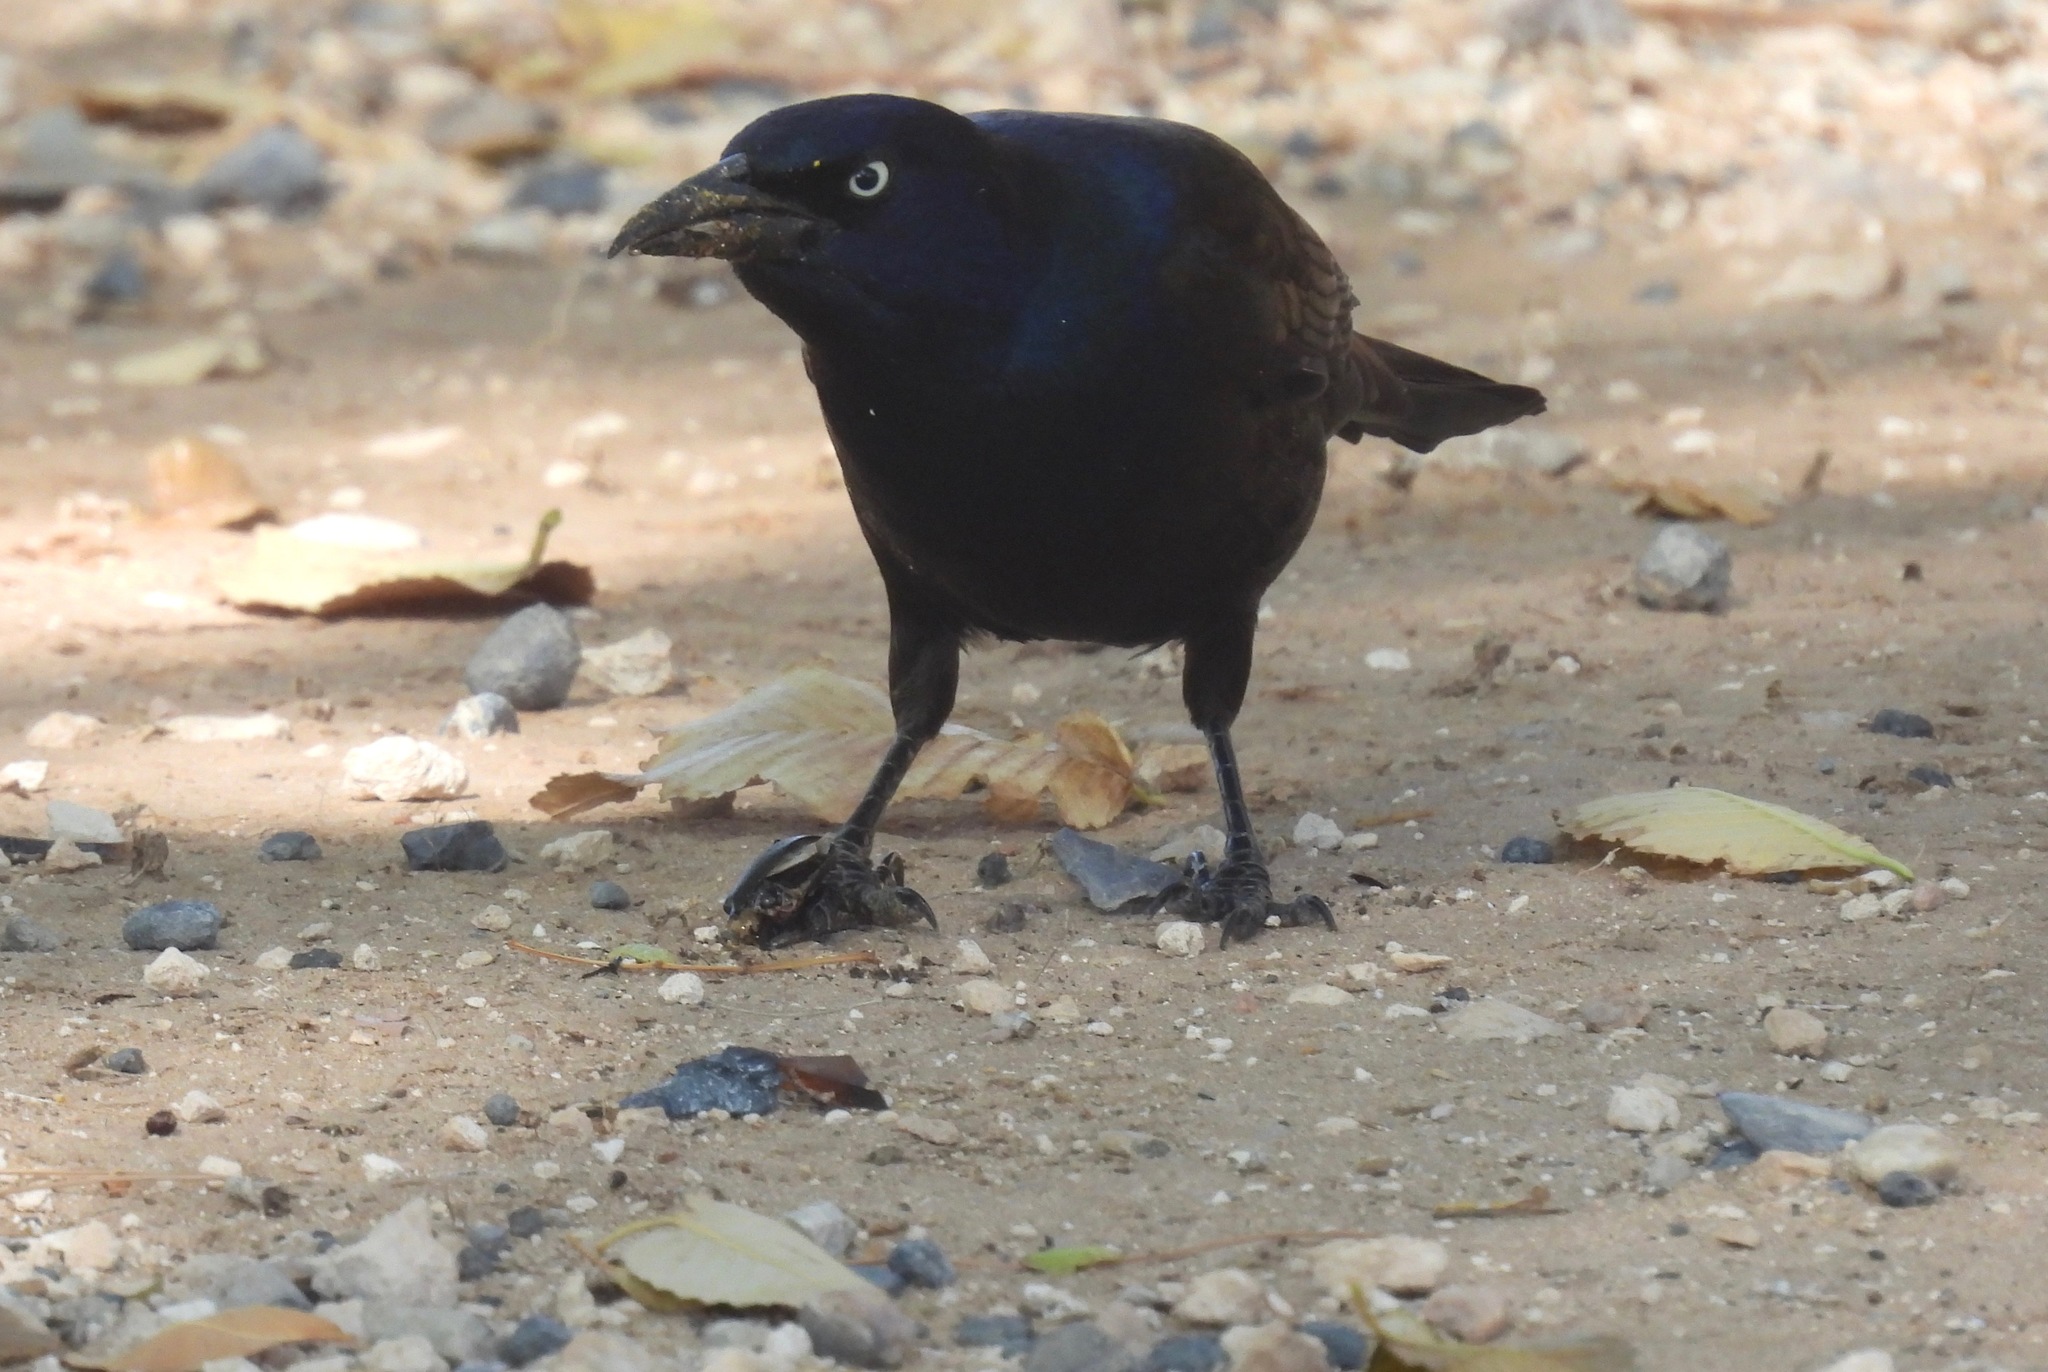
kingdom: Animalia
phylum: Chordata
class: Aves
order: Passeriformes
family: Icteridae
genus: Quiscalus
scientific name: Quiscalus quiscula
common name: Common grackle
